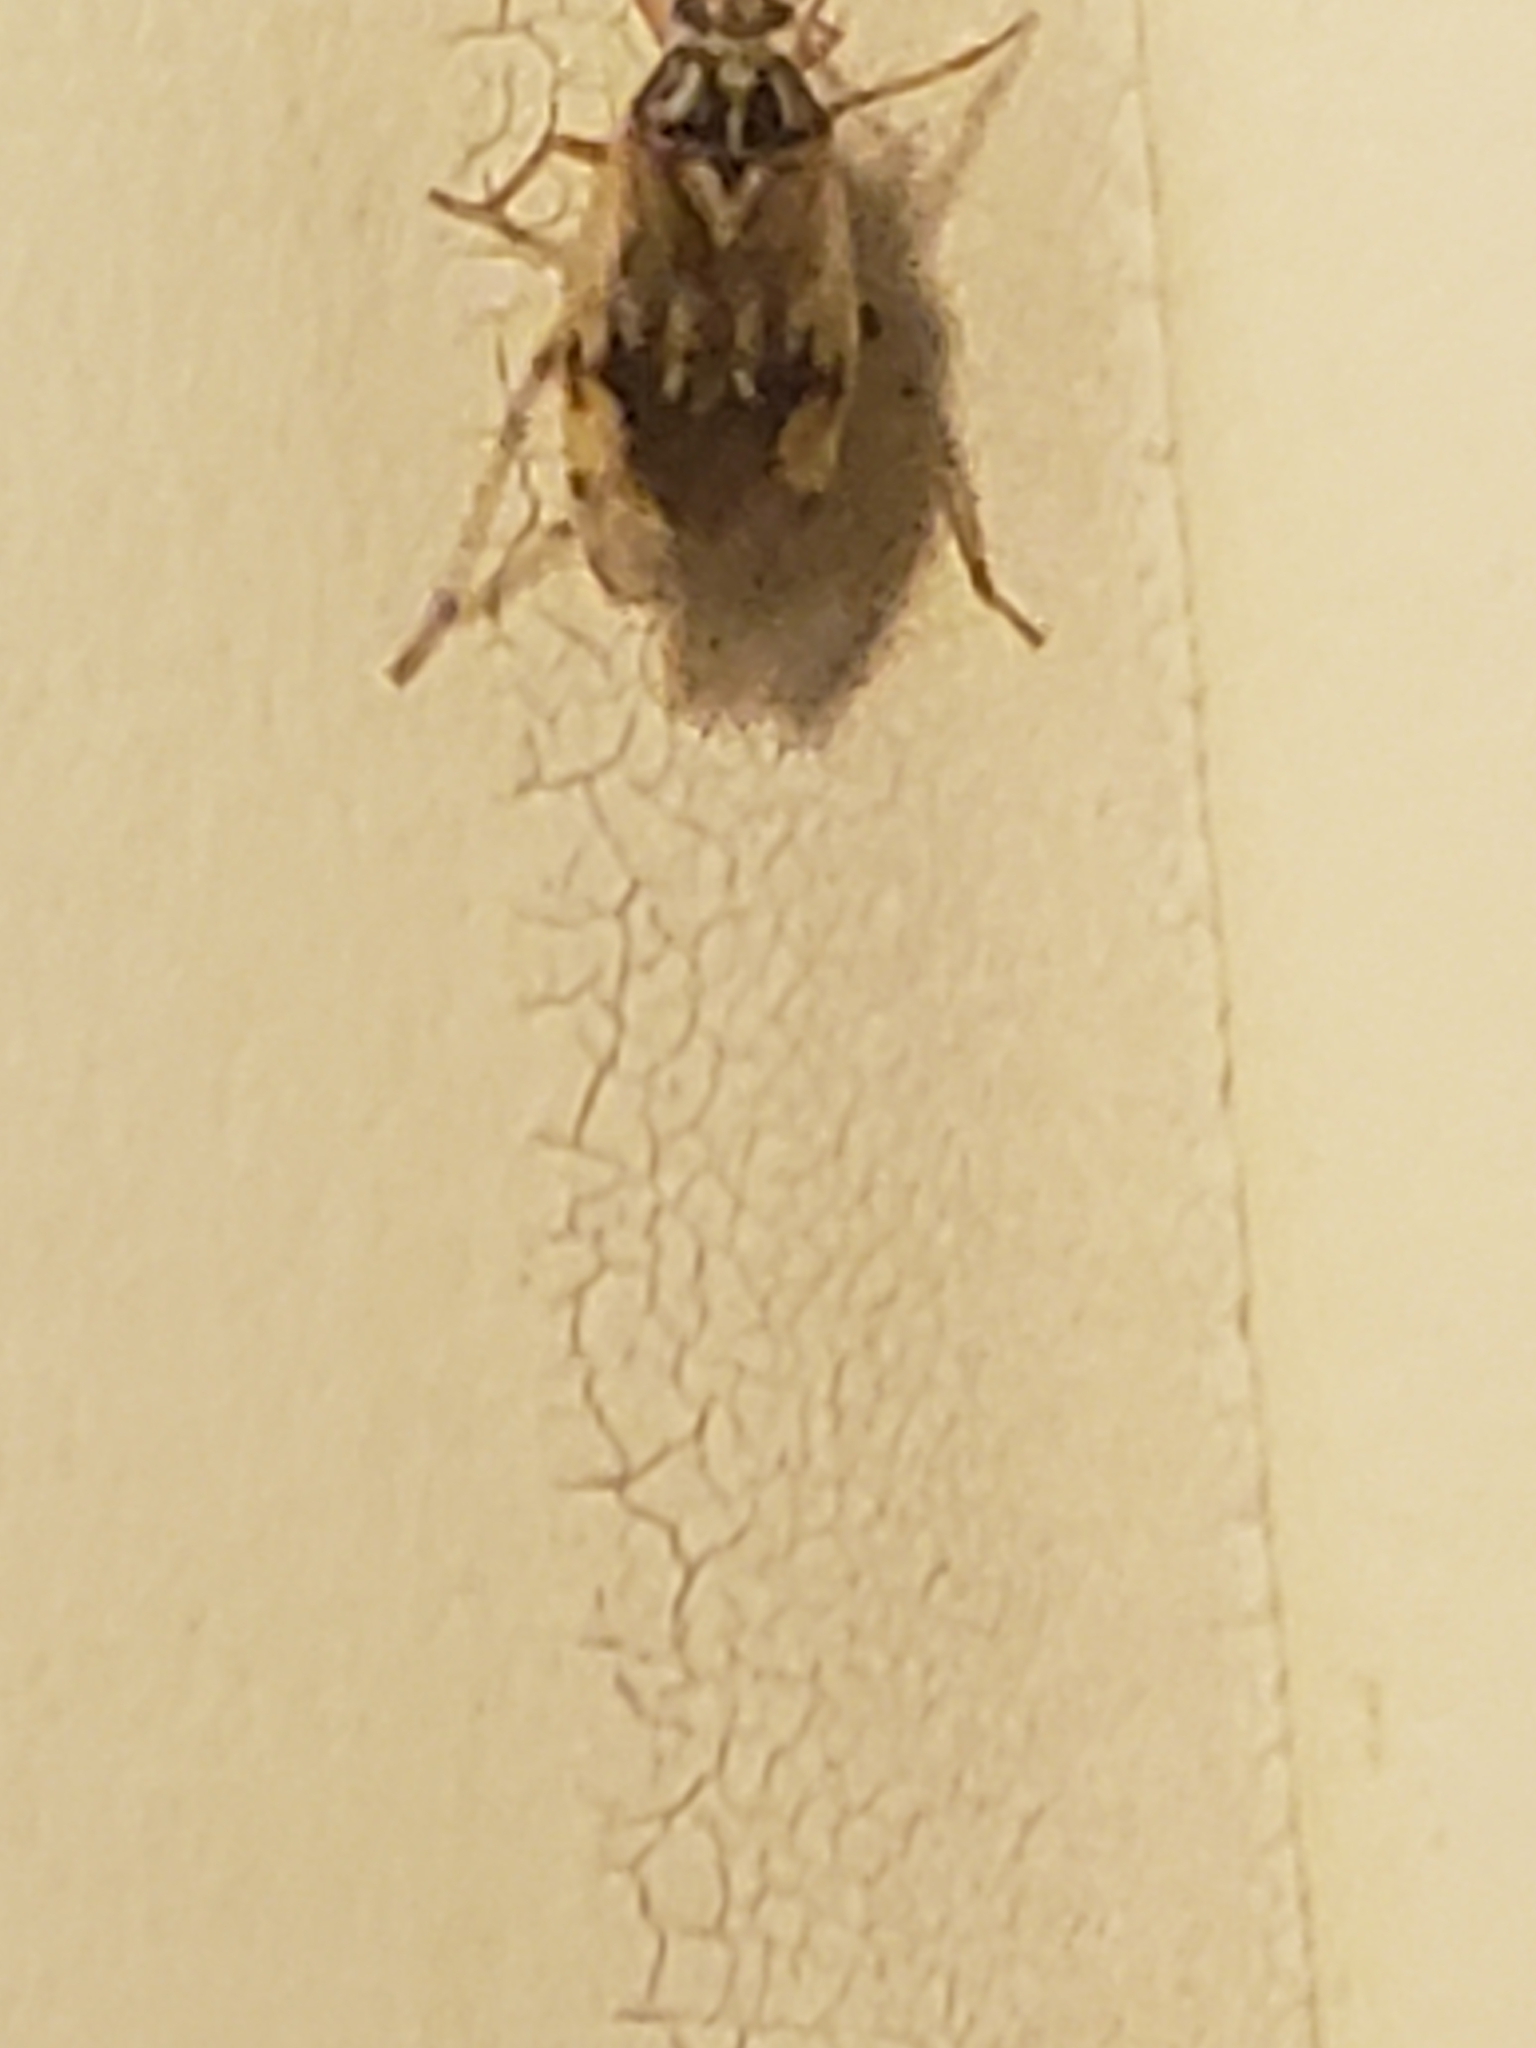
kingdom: Animalia
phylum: Arthropoda
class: Insecta
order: Hemiptera
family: Miridae
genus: Lygus
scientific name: Lygus lineolaris
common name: North american tarnished plant bug
